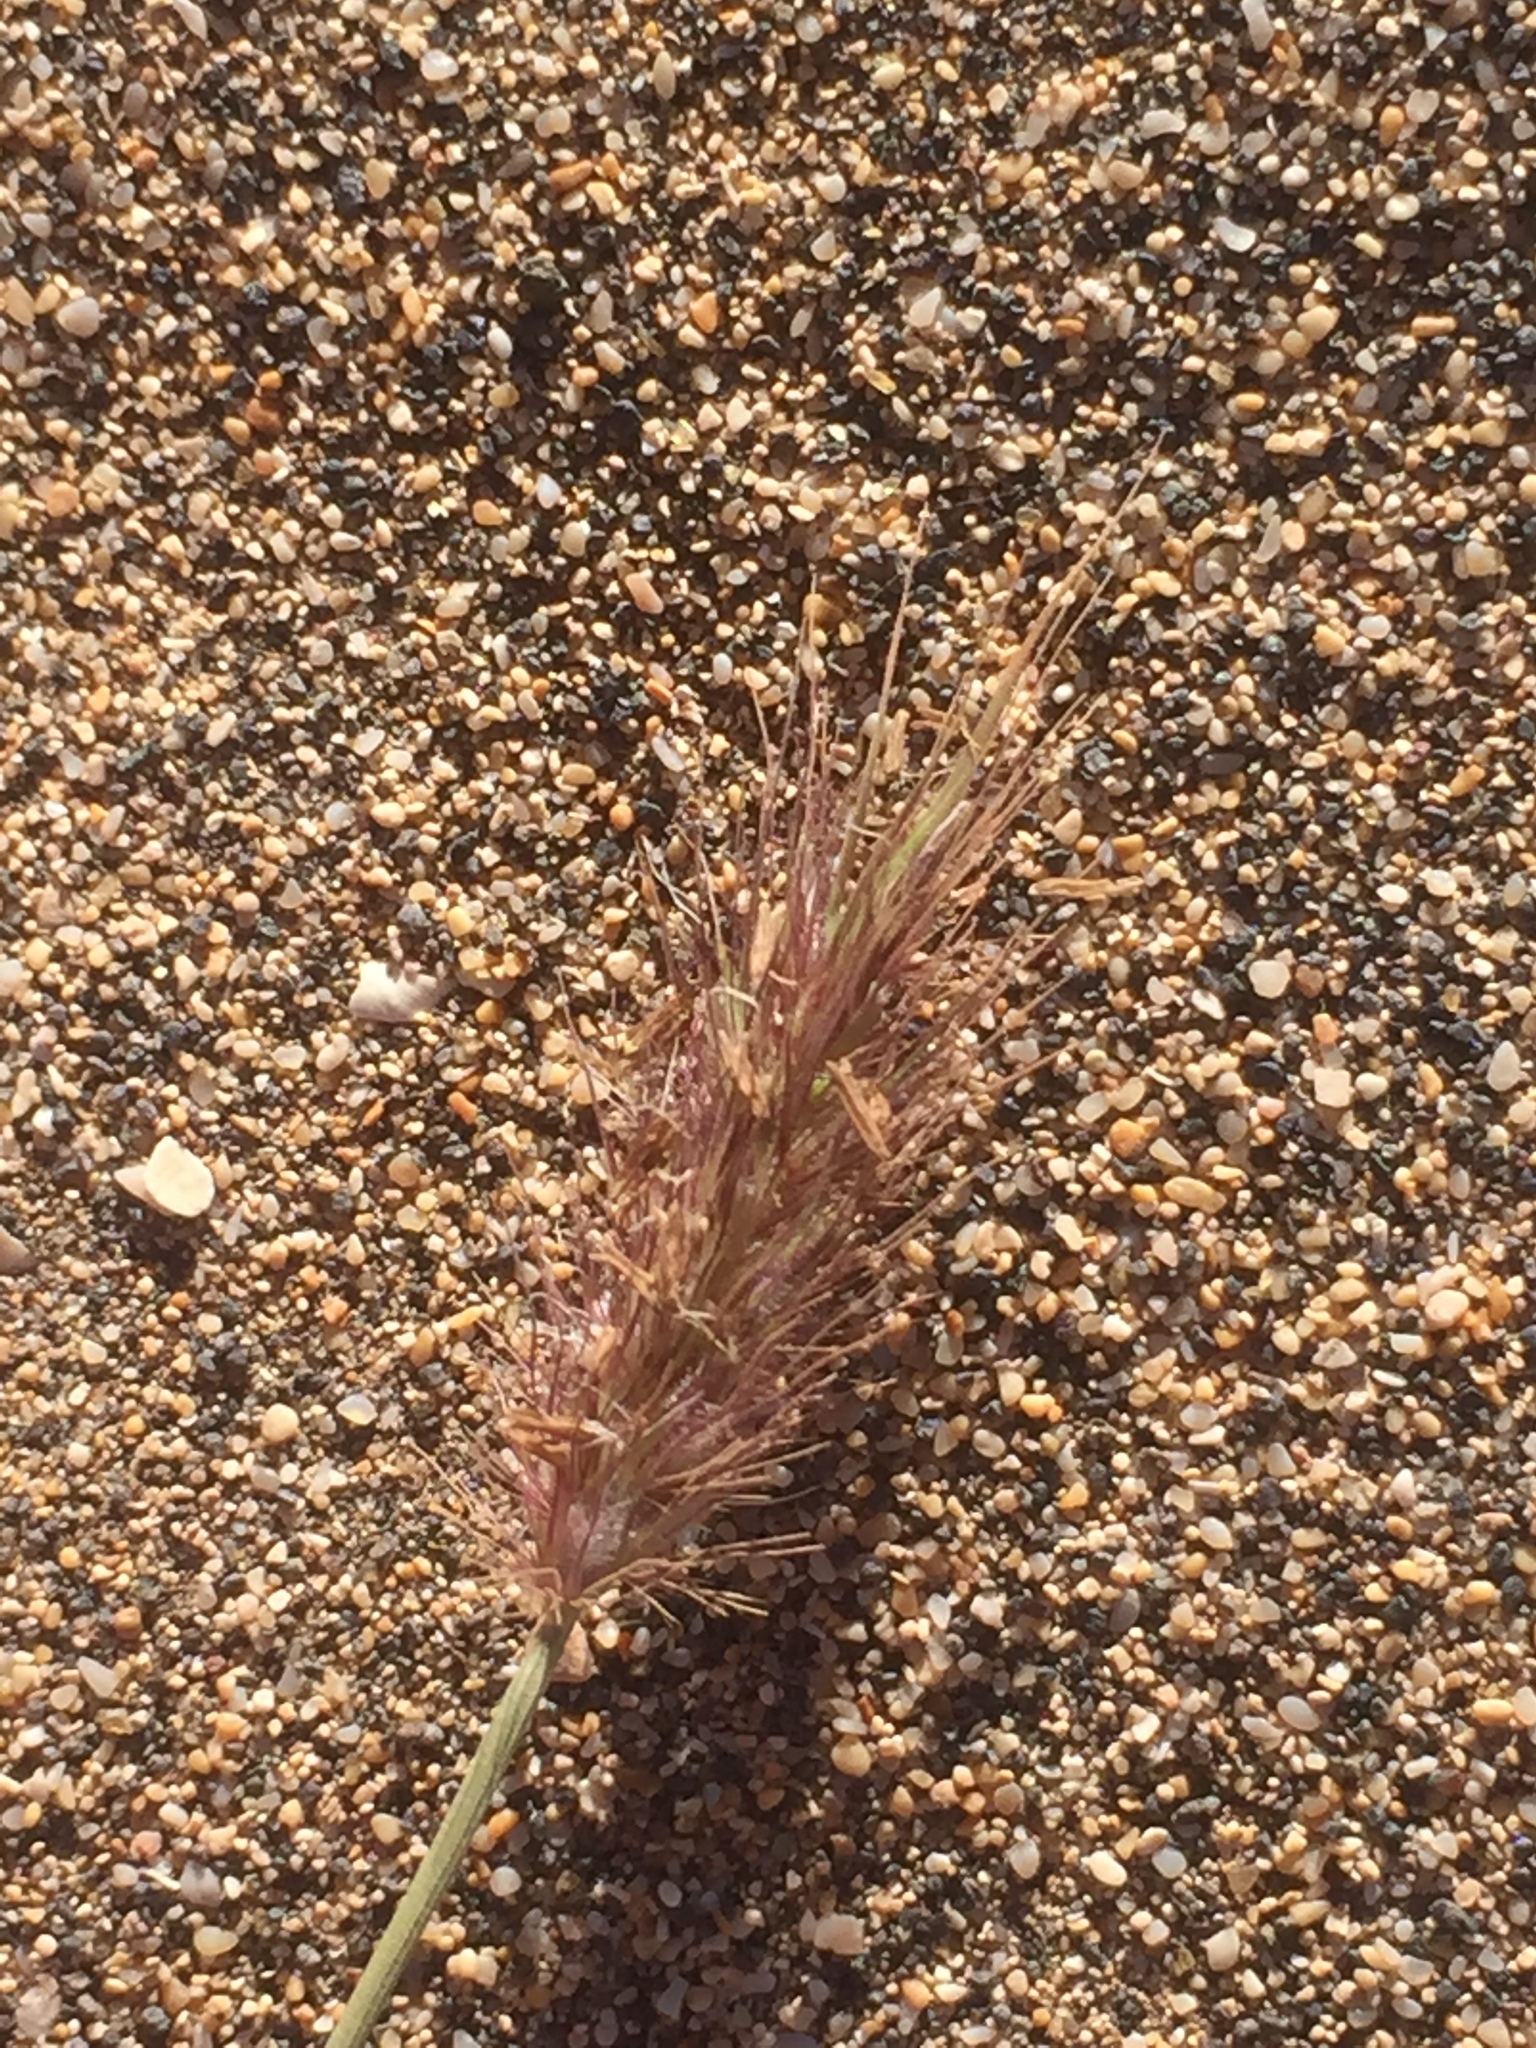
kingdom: Plantae
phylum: Tracheophyta
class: Liliopsida
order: Poales
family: Poaceae
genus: Cenchrus
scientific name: Cenchrus ciliaris
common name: Buffelgrass
